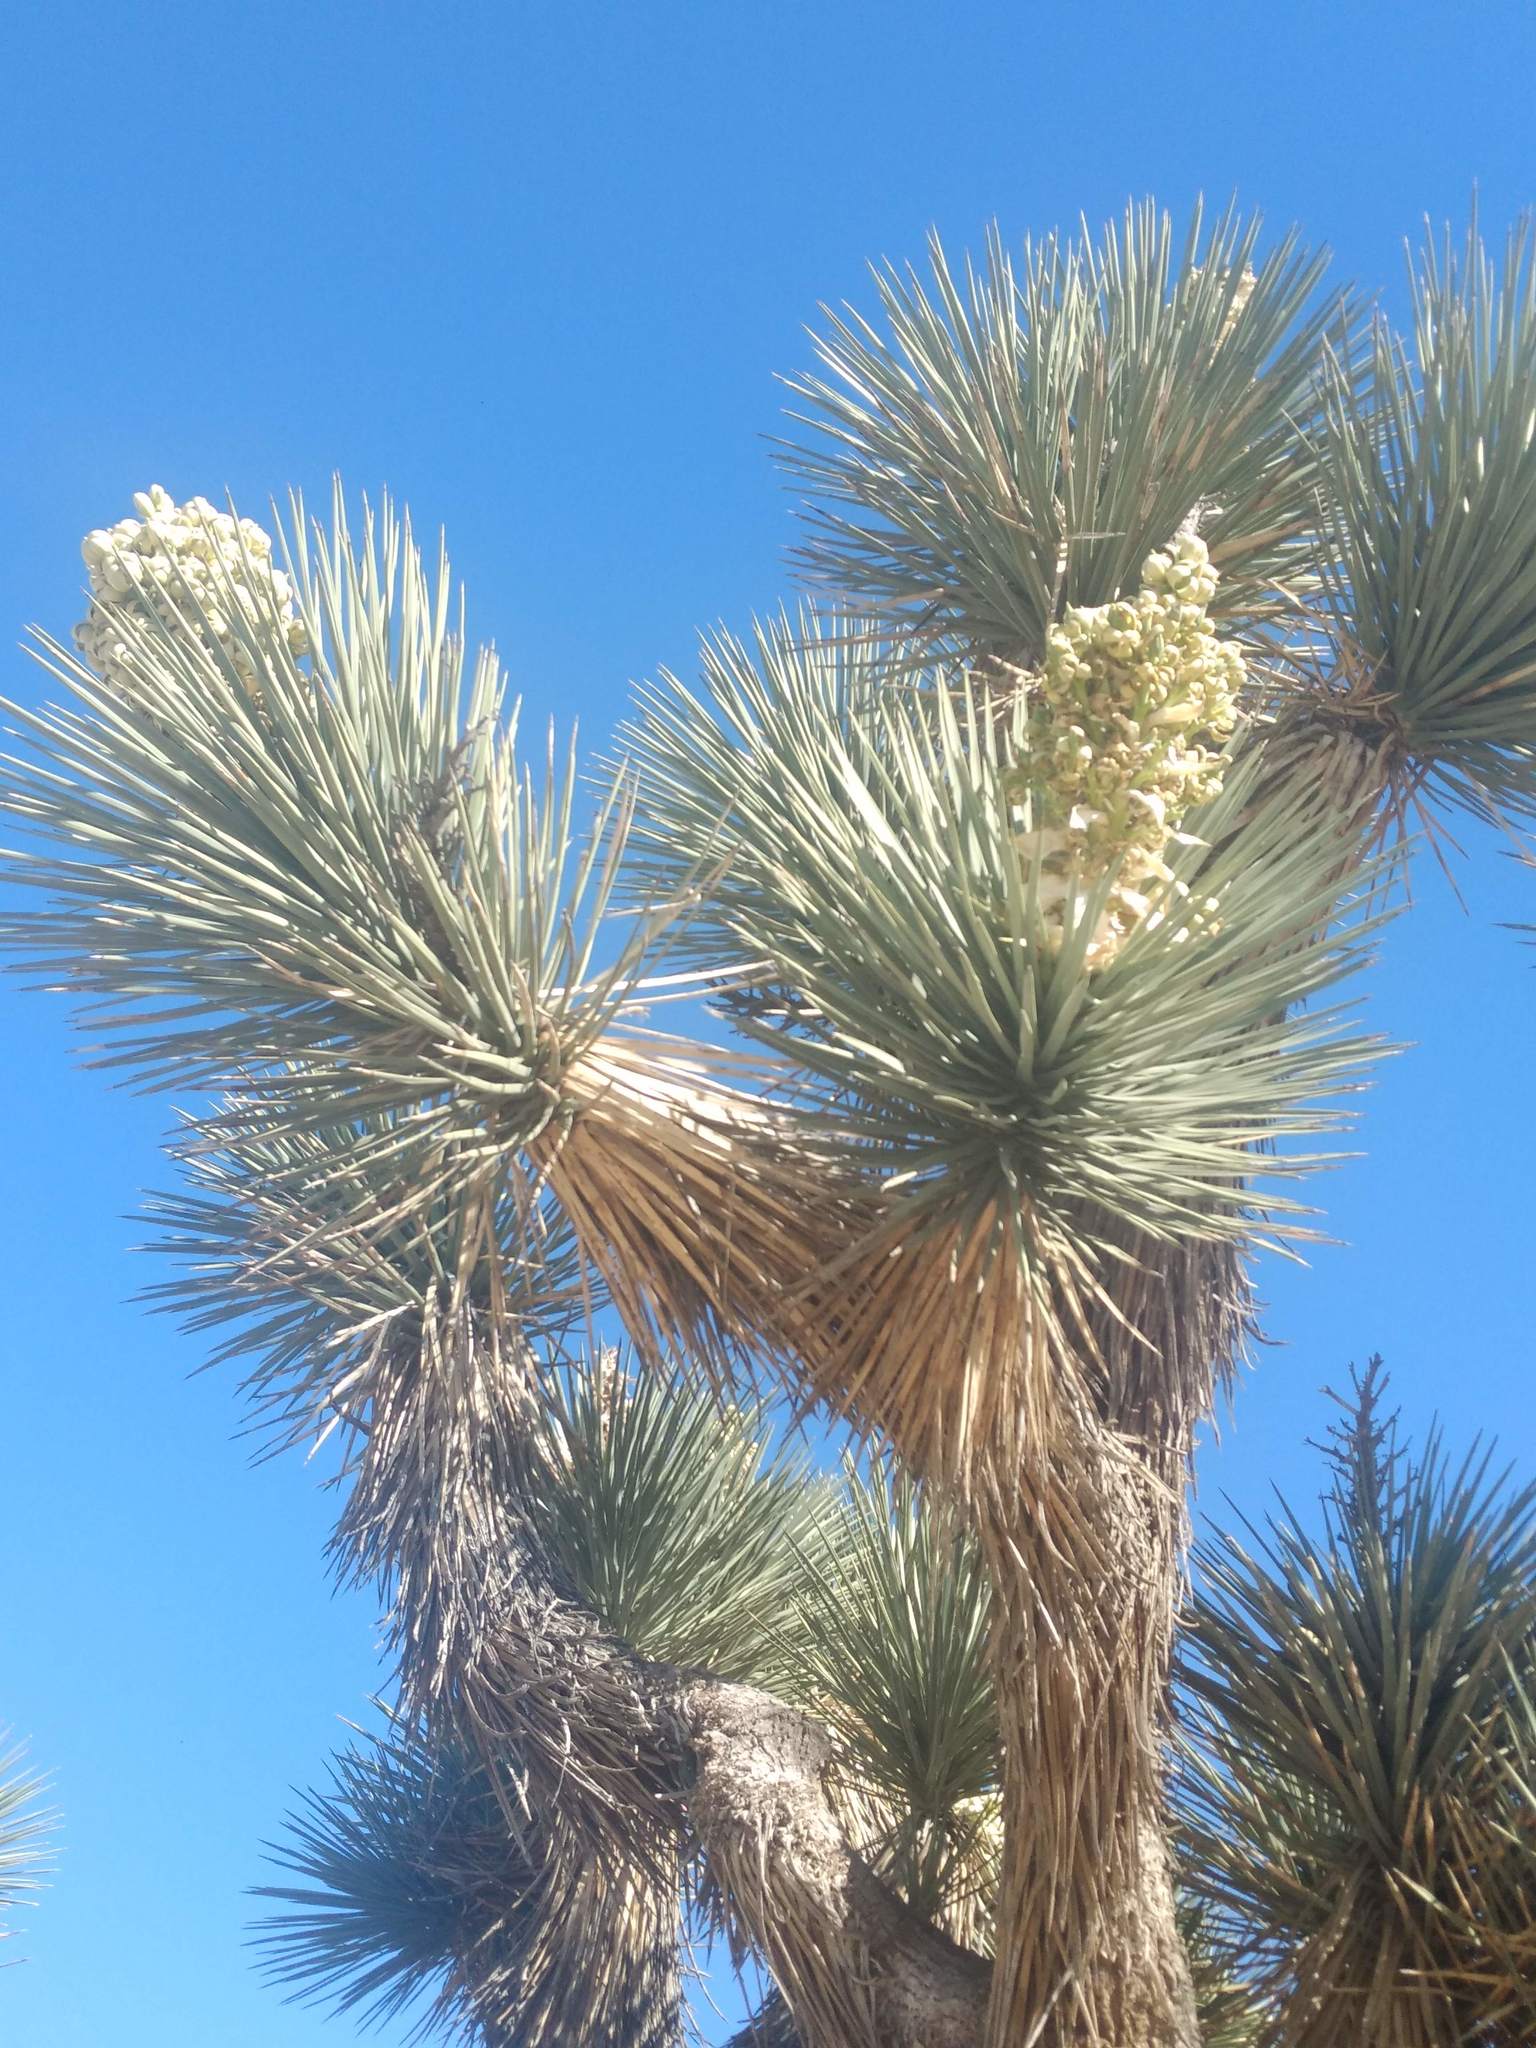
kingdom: Plantae
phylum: Tracheophyta
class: Liliopsida
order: Asparagales
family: Asparagaceae
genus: Yucca
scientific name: Yucca brevifolia
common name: Joshua tree
